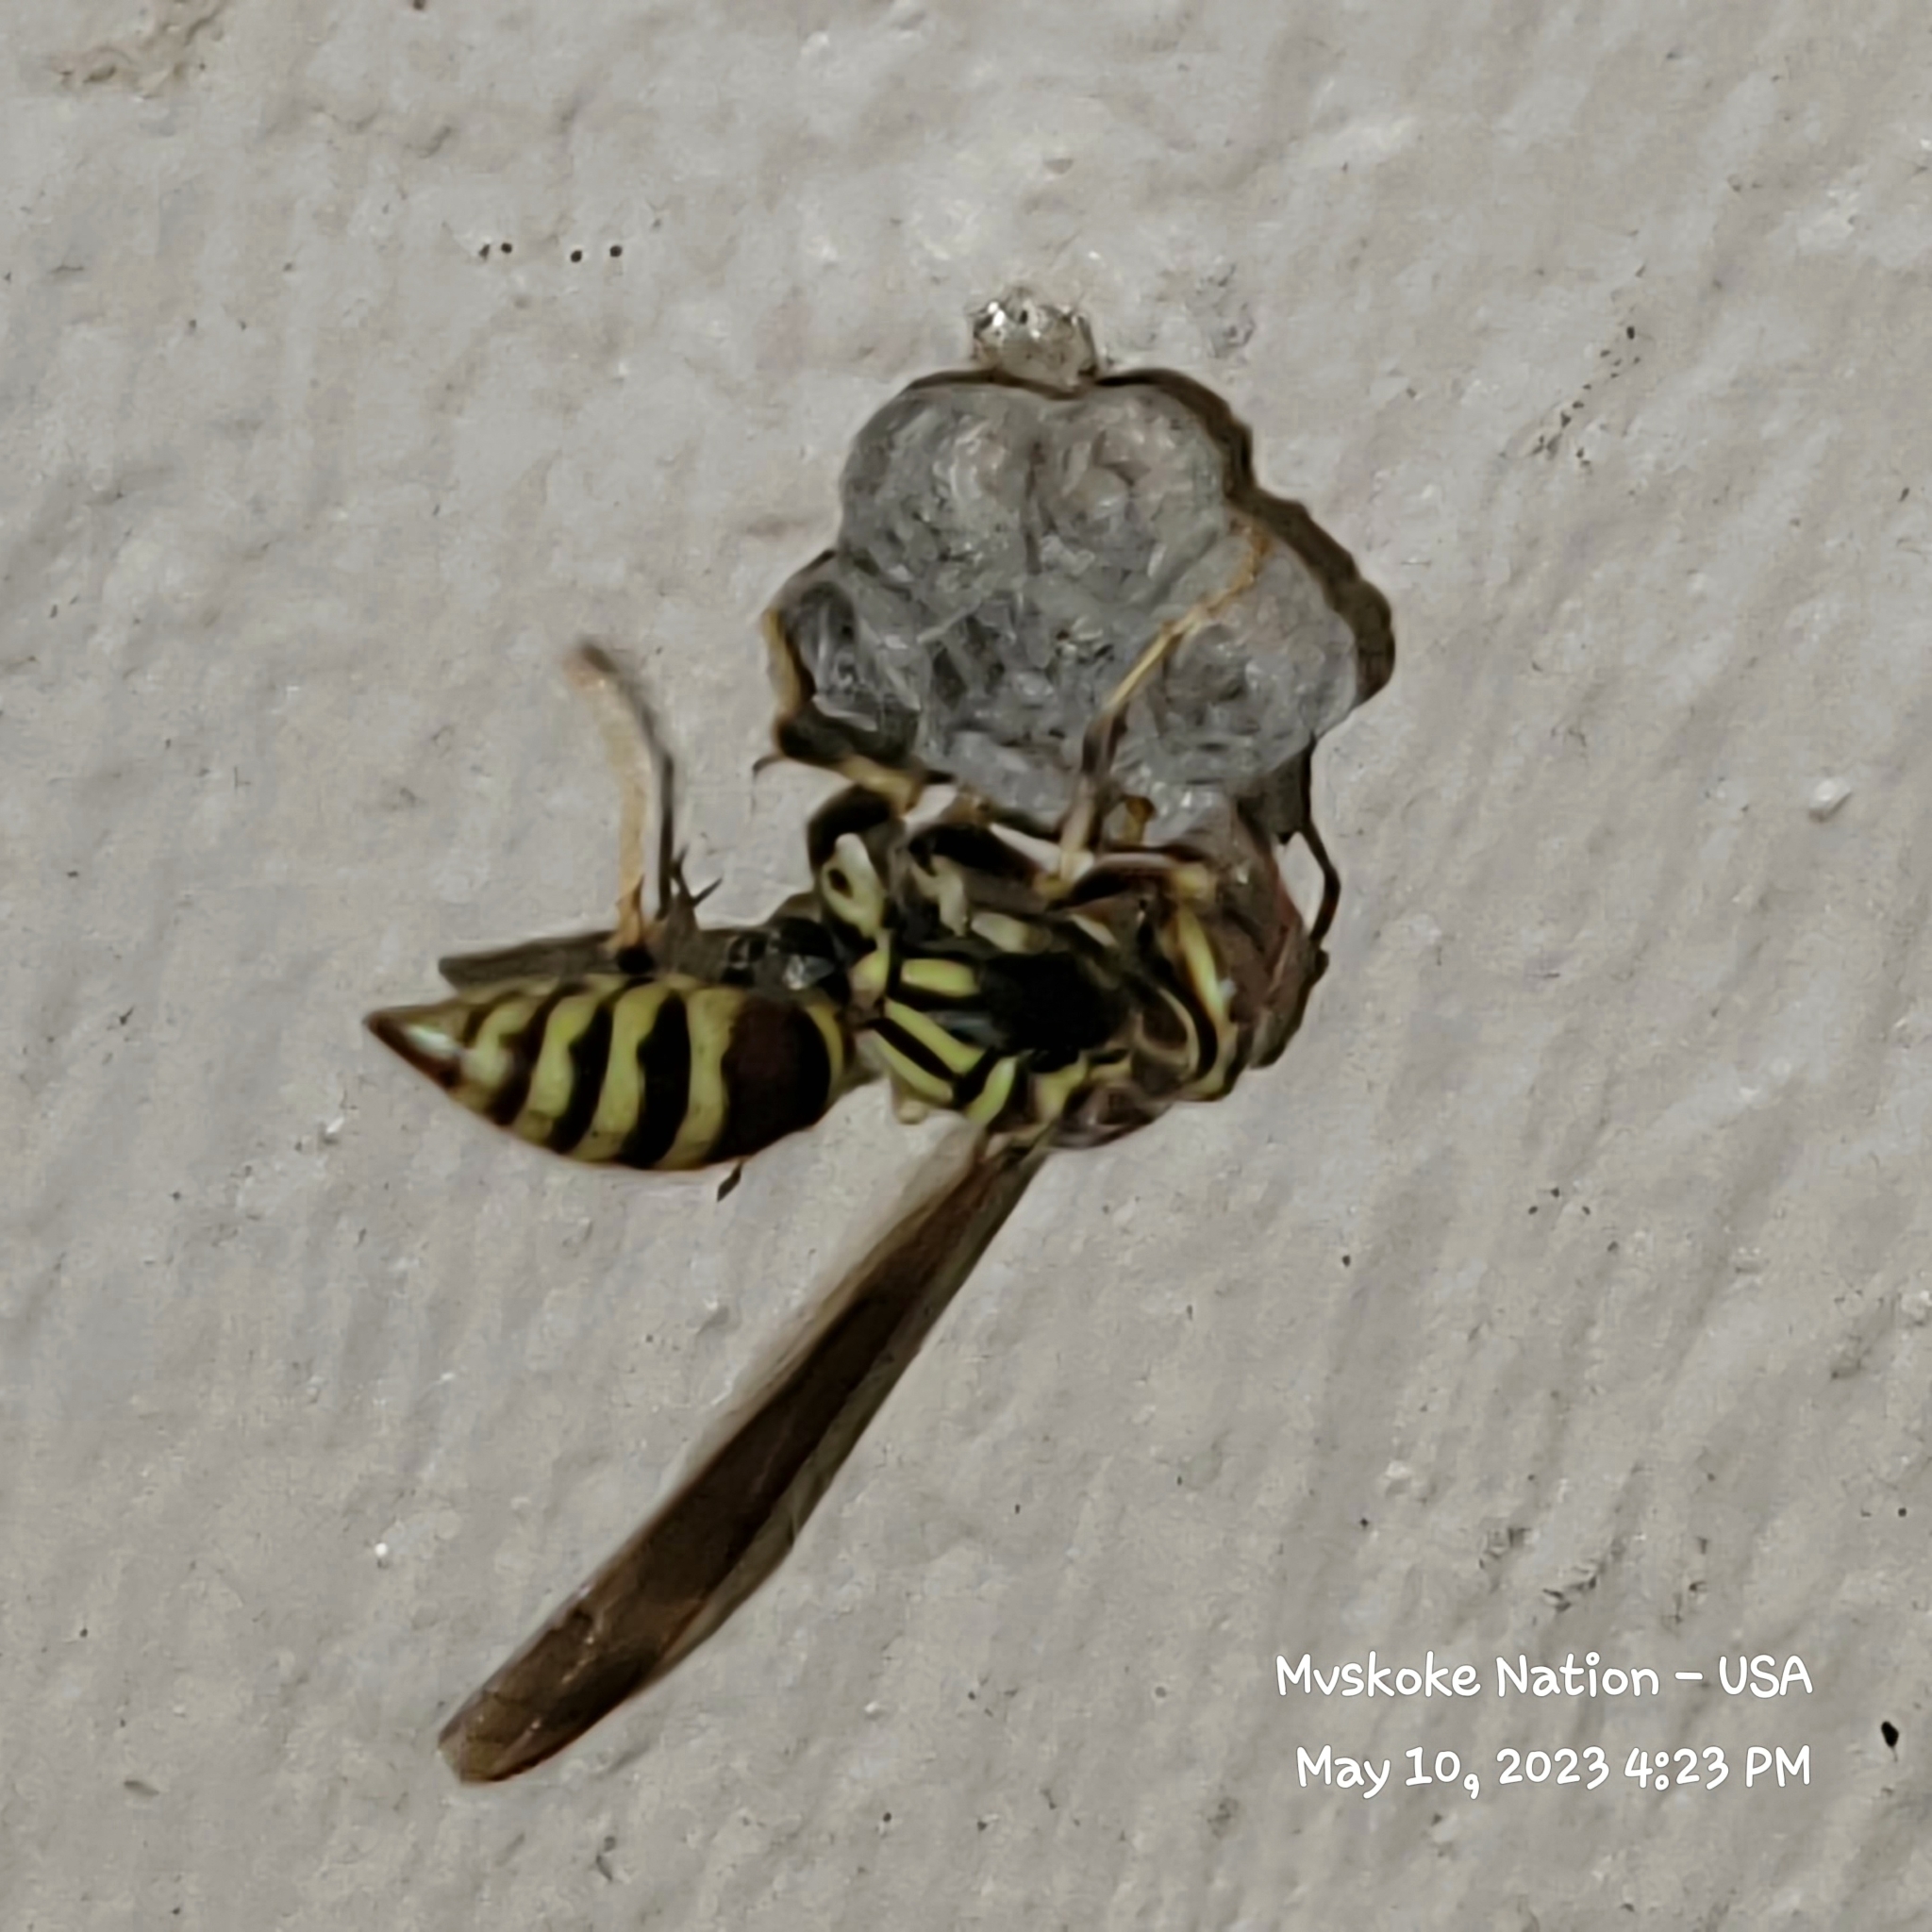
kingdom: Animalia
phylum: Arthropoda
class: Insecta
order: Hymenoptera
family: Eumenidae
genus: Polistes
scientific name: Polistes exclamans
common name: Paper wasp
